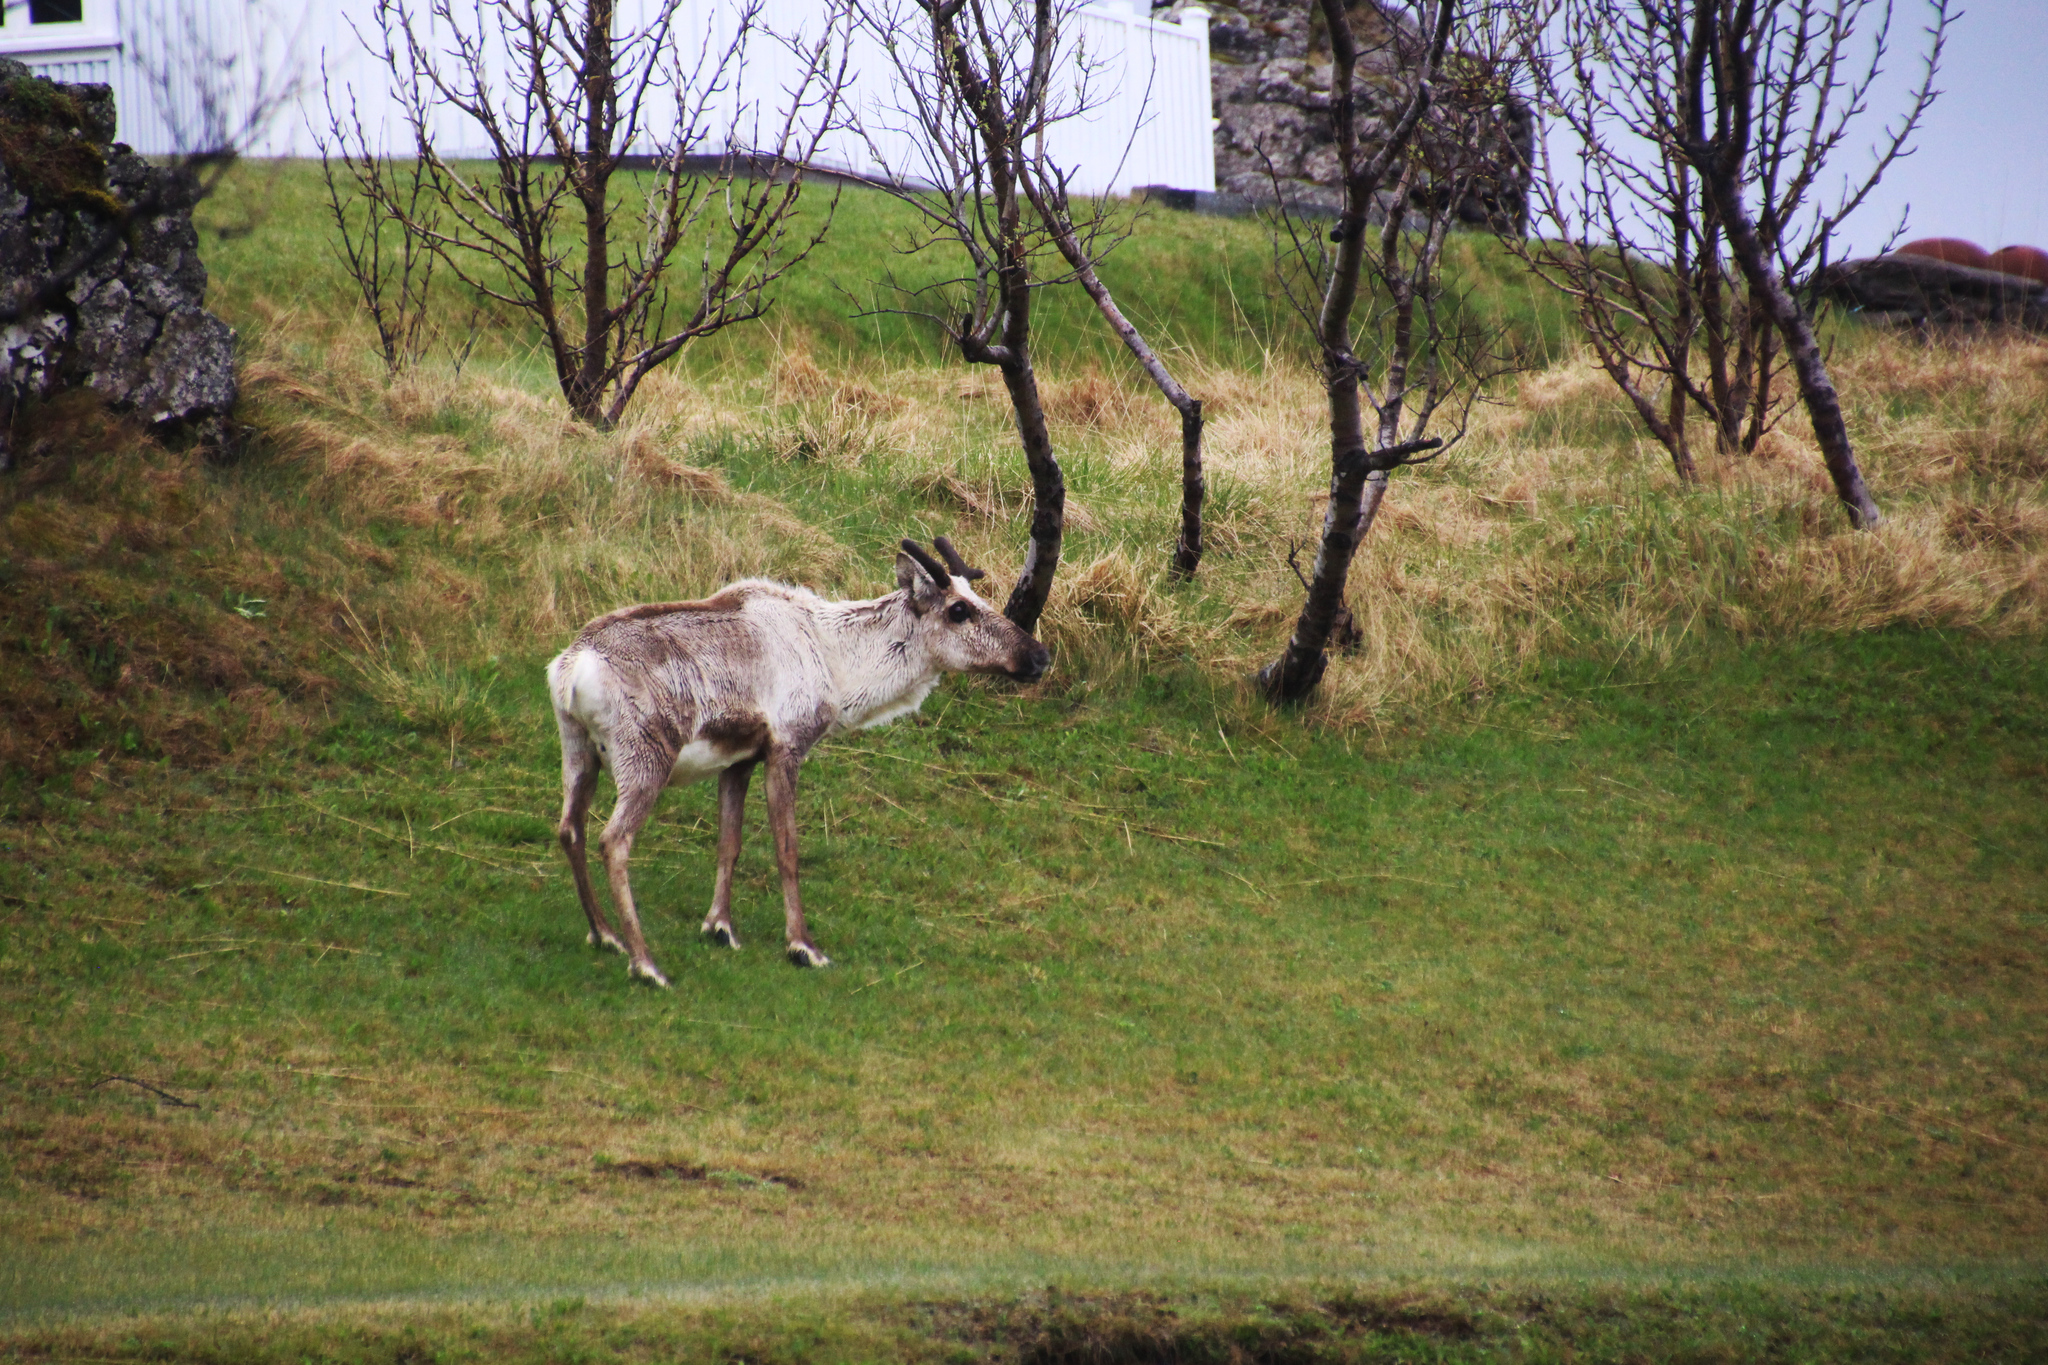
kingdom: Animalia
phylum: Chordata
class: Mammalia
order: Artiodactyla
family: Cervidae
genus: Rangifer
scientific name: Rangifer tarandus
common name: Reindeer
